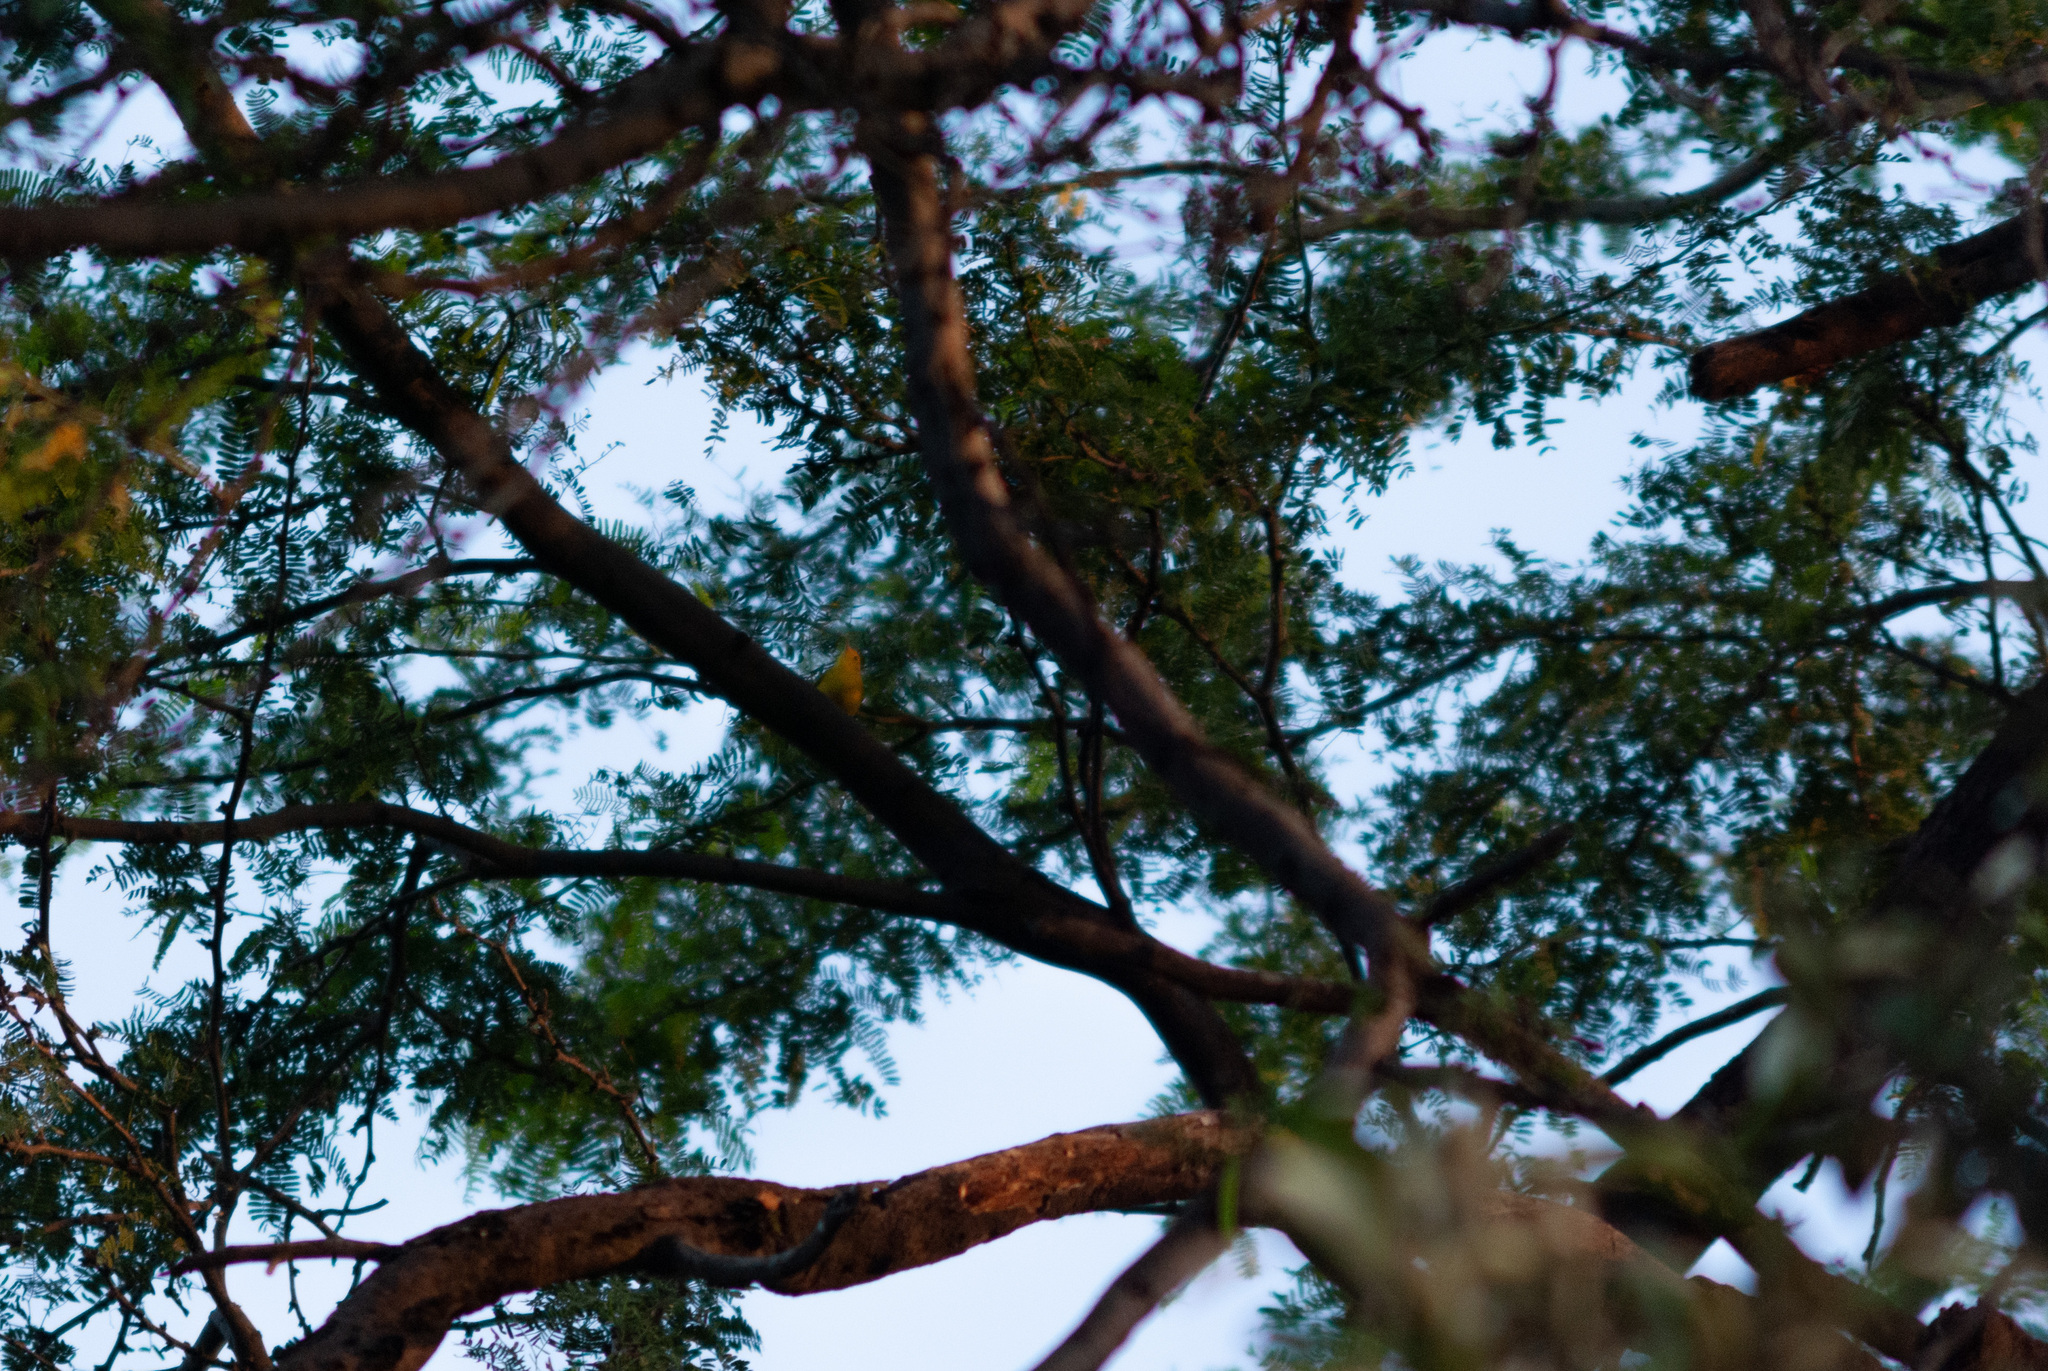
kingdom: Animalia
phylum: Chordata
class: Aves
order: Passeriformes
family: Parulidae
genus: Setophaga
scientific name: Setophaga petechia
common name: Yellow warbler
